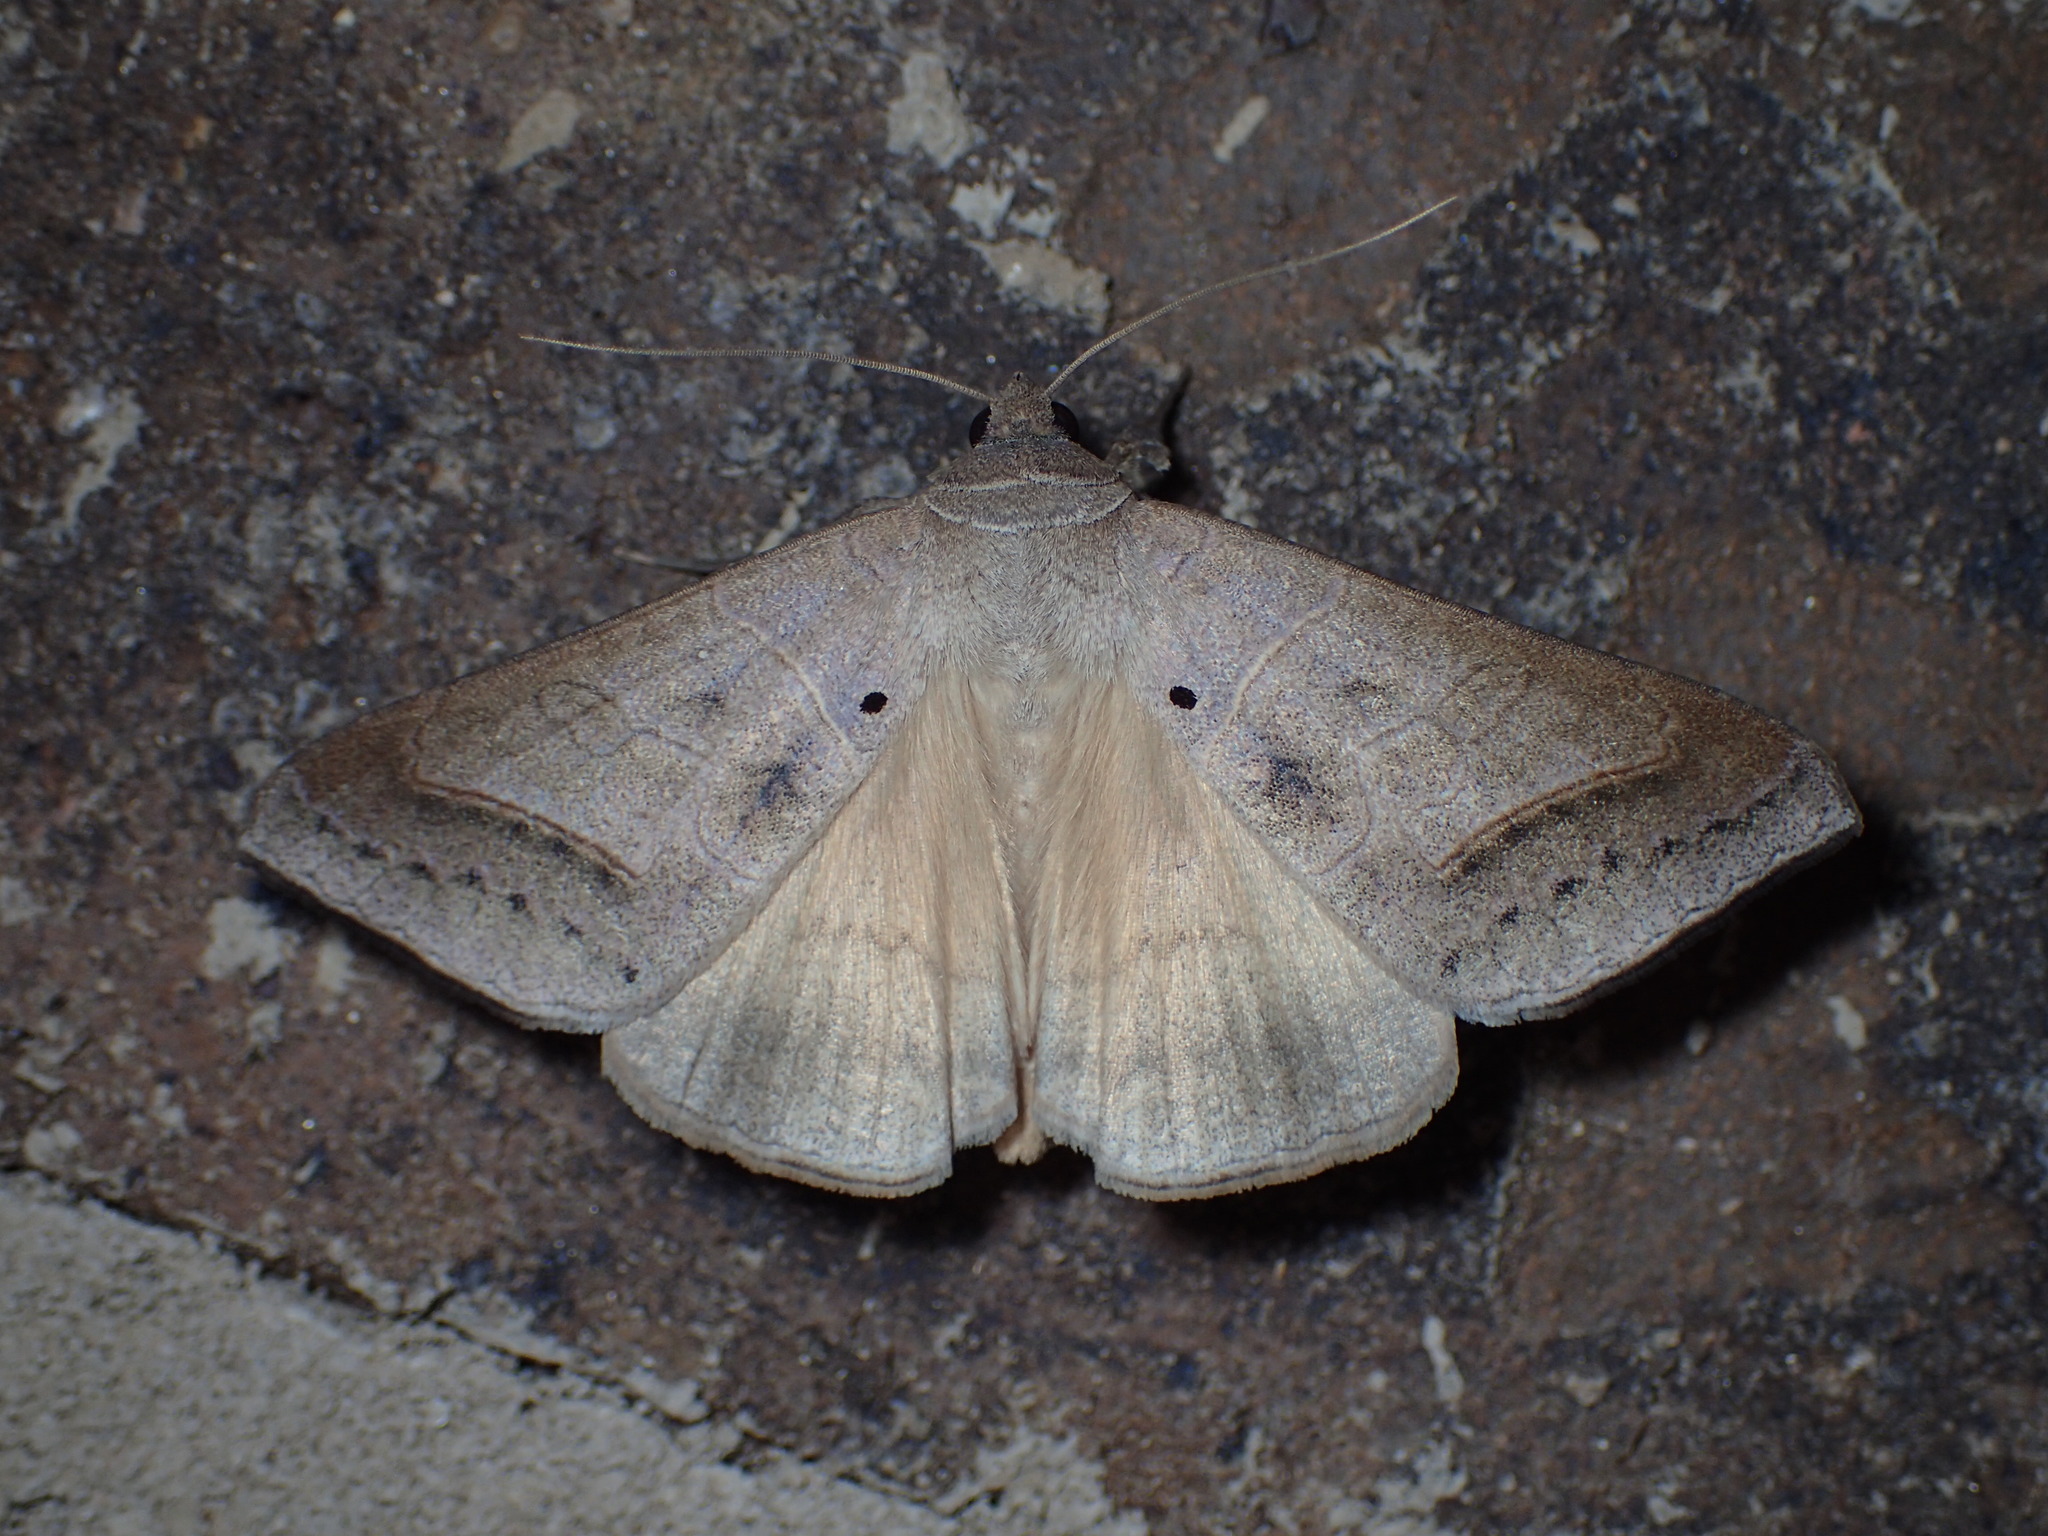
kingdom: Animalia
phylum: Arthropoda
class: Insecta
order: Lepidoptera
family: Erebidae
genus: Mocis
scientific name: Mocis marcida
